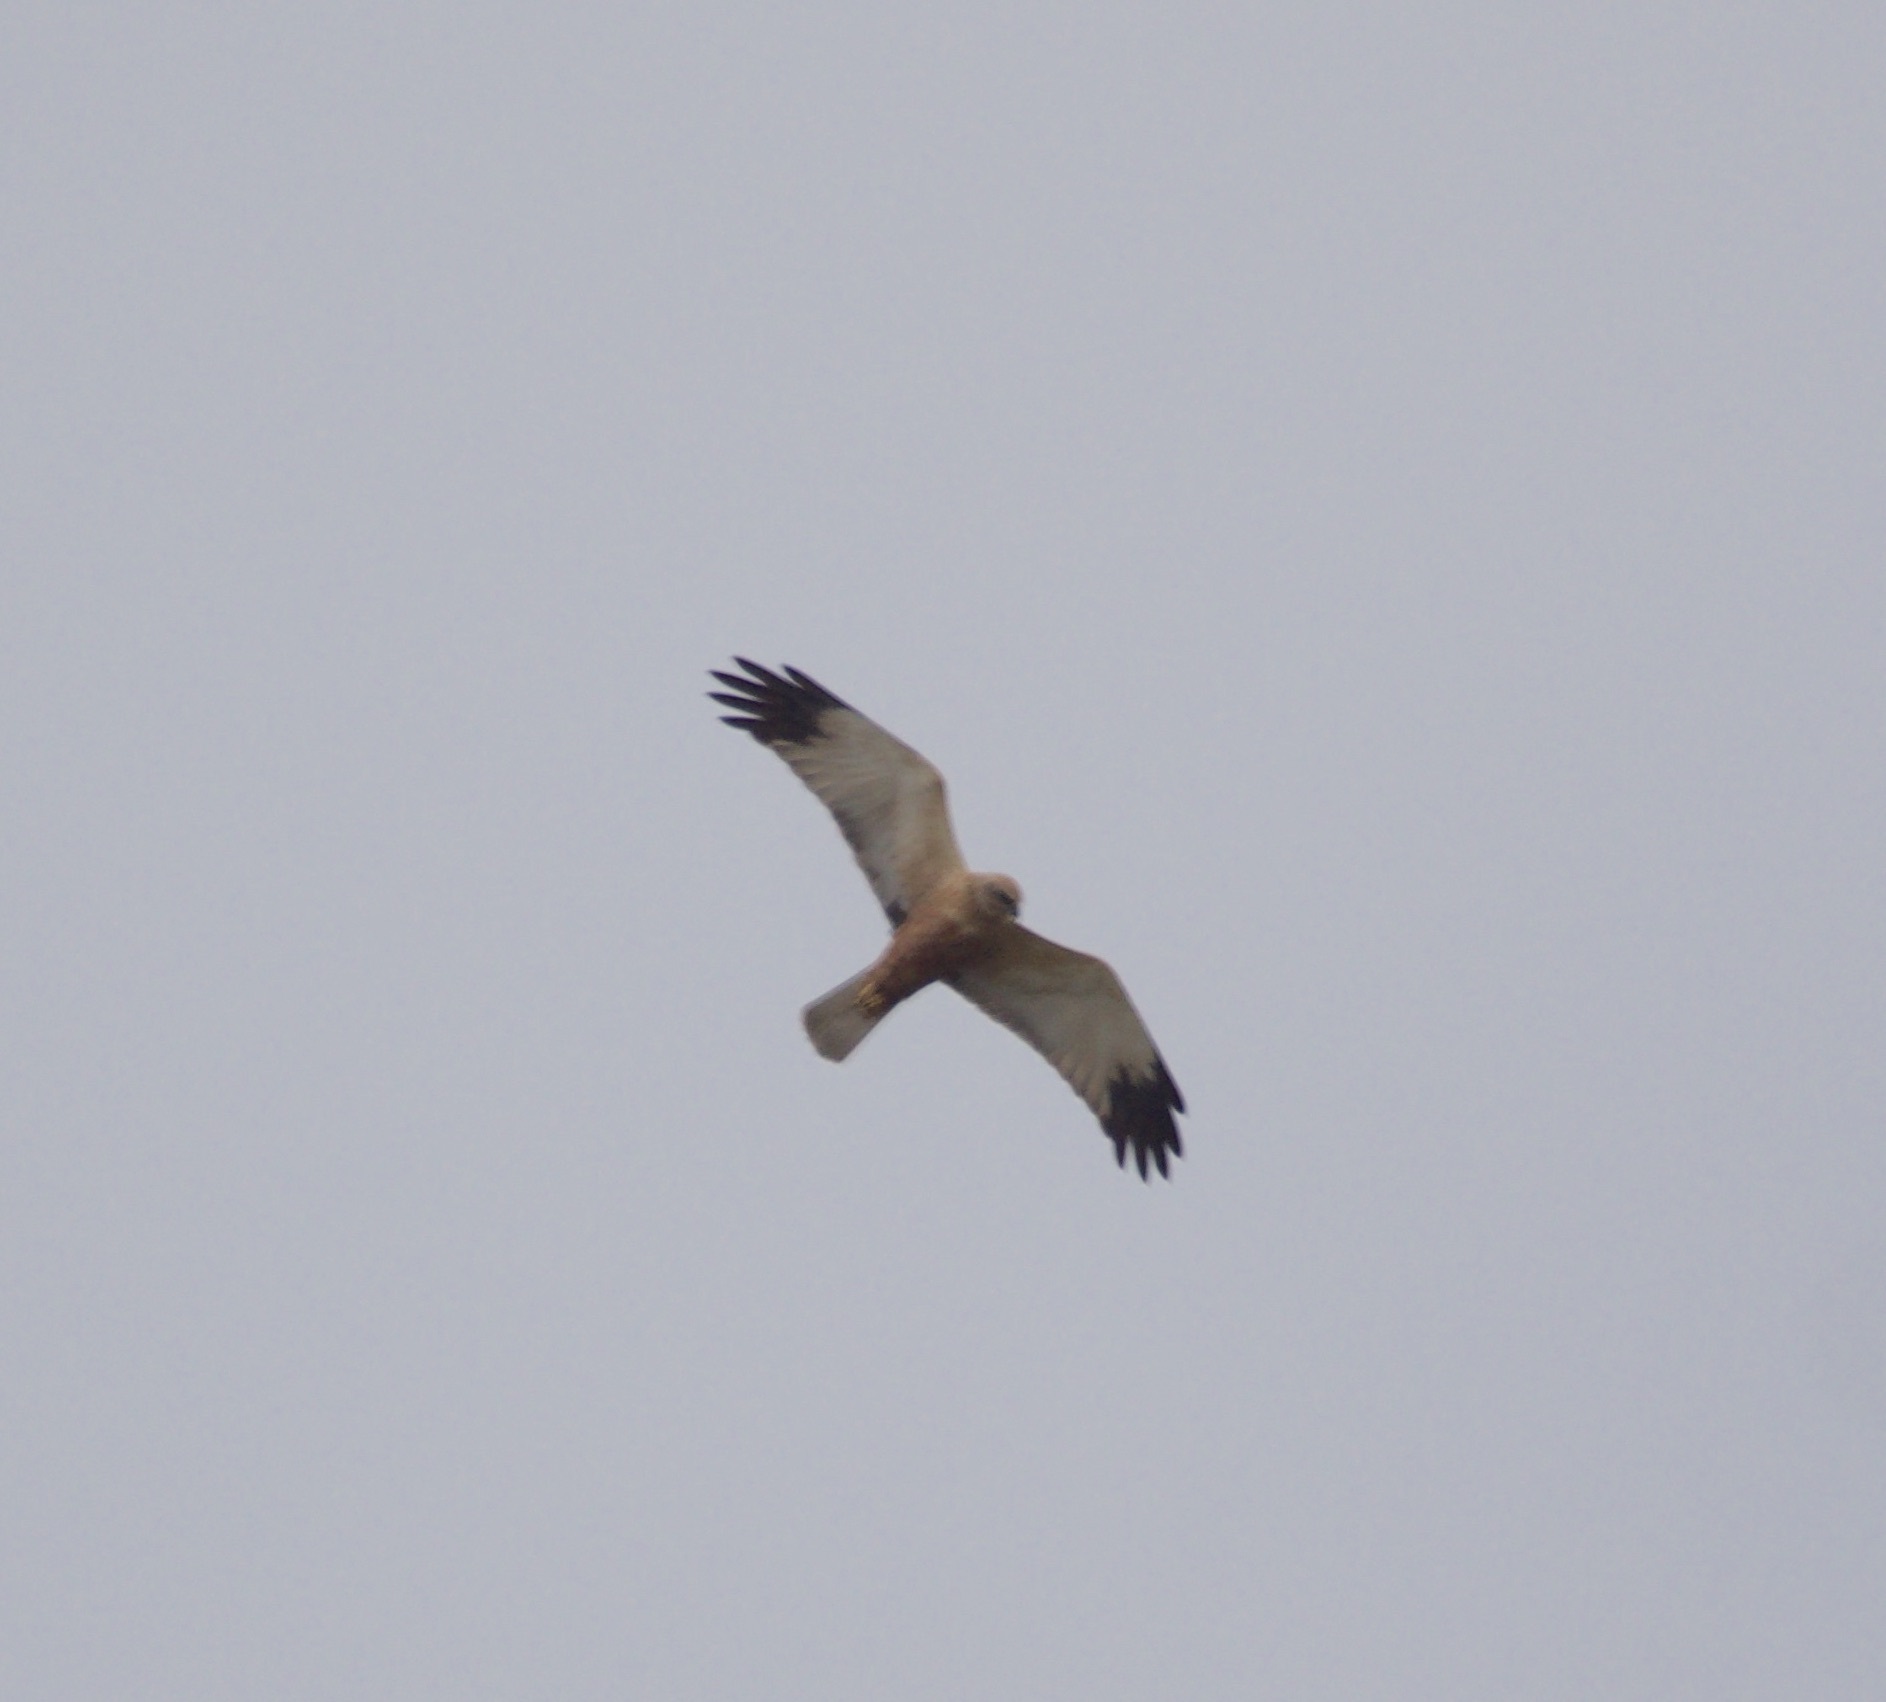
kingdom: Animalia
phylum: Chordata
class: Aves
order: Accipitriformes
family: Accipitridae
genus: Circus
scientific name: Circus aeruginosus
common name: Western marsh harrier
